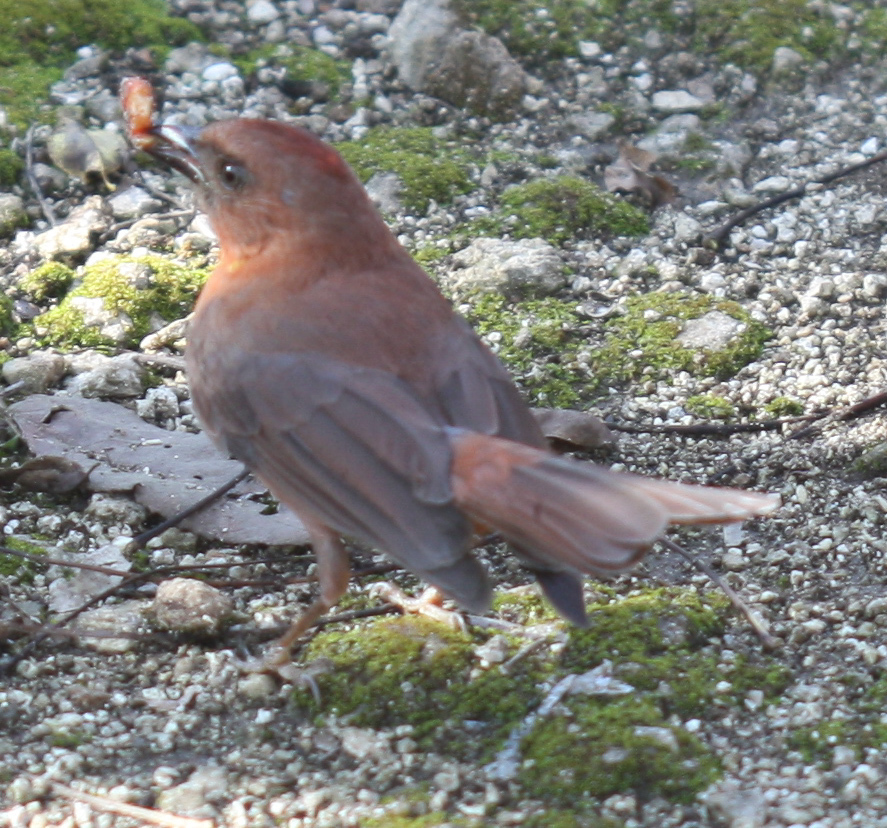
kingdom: Animalia
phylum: Chordata
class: Aves
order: Passeriformes
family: Cardinalidae
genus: Habia
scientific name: Habia fuscicauda
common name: Red-throated ant-tanager
